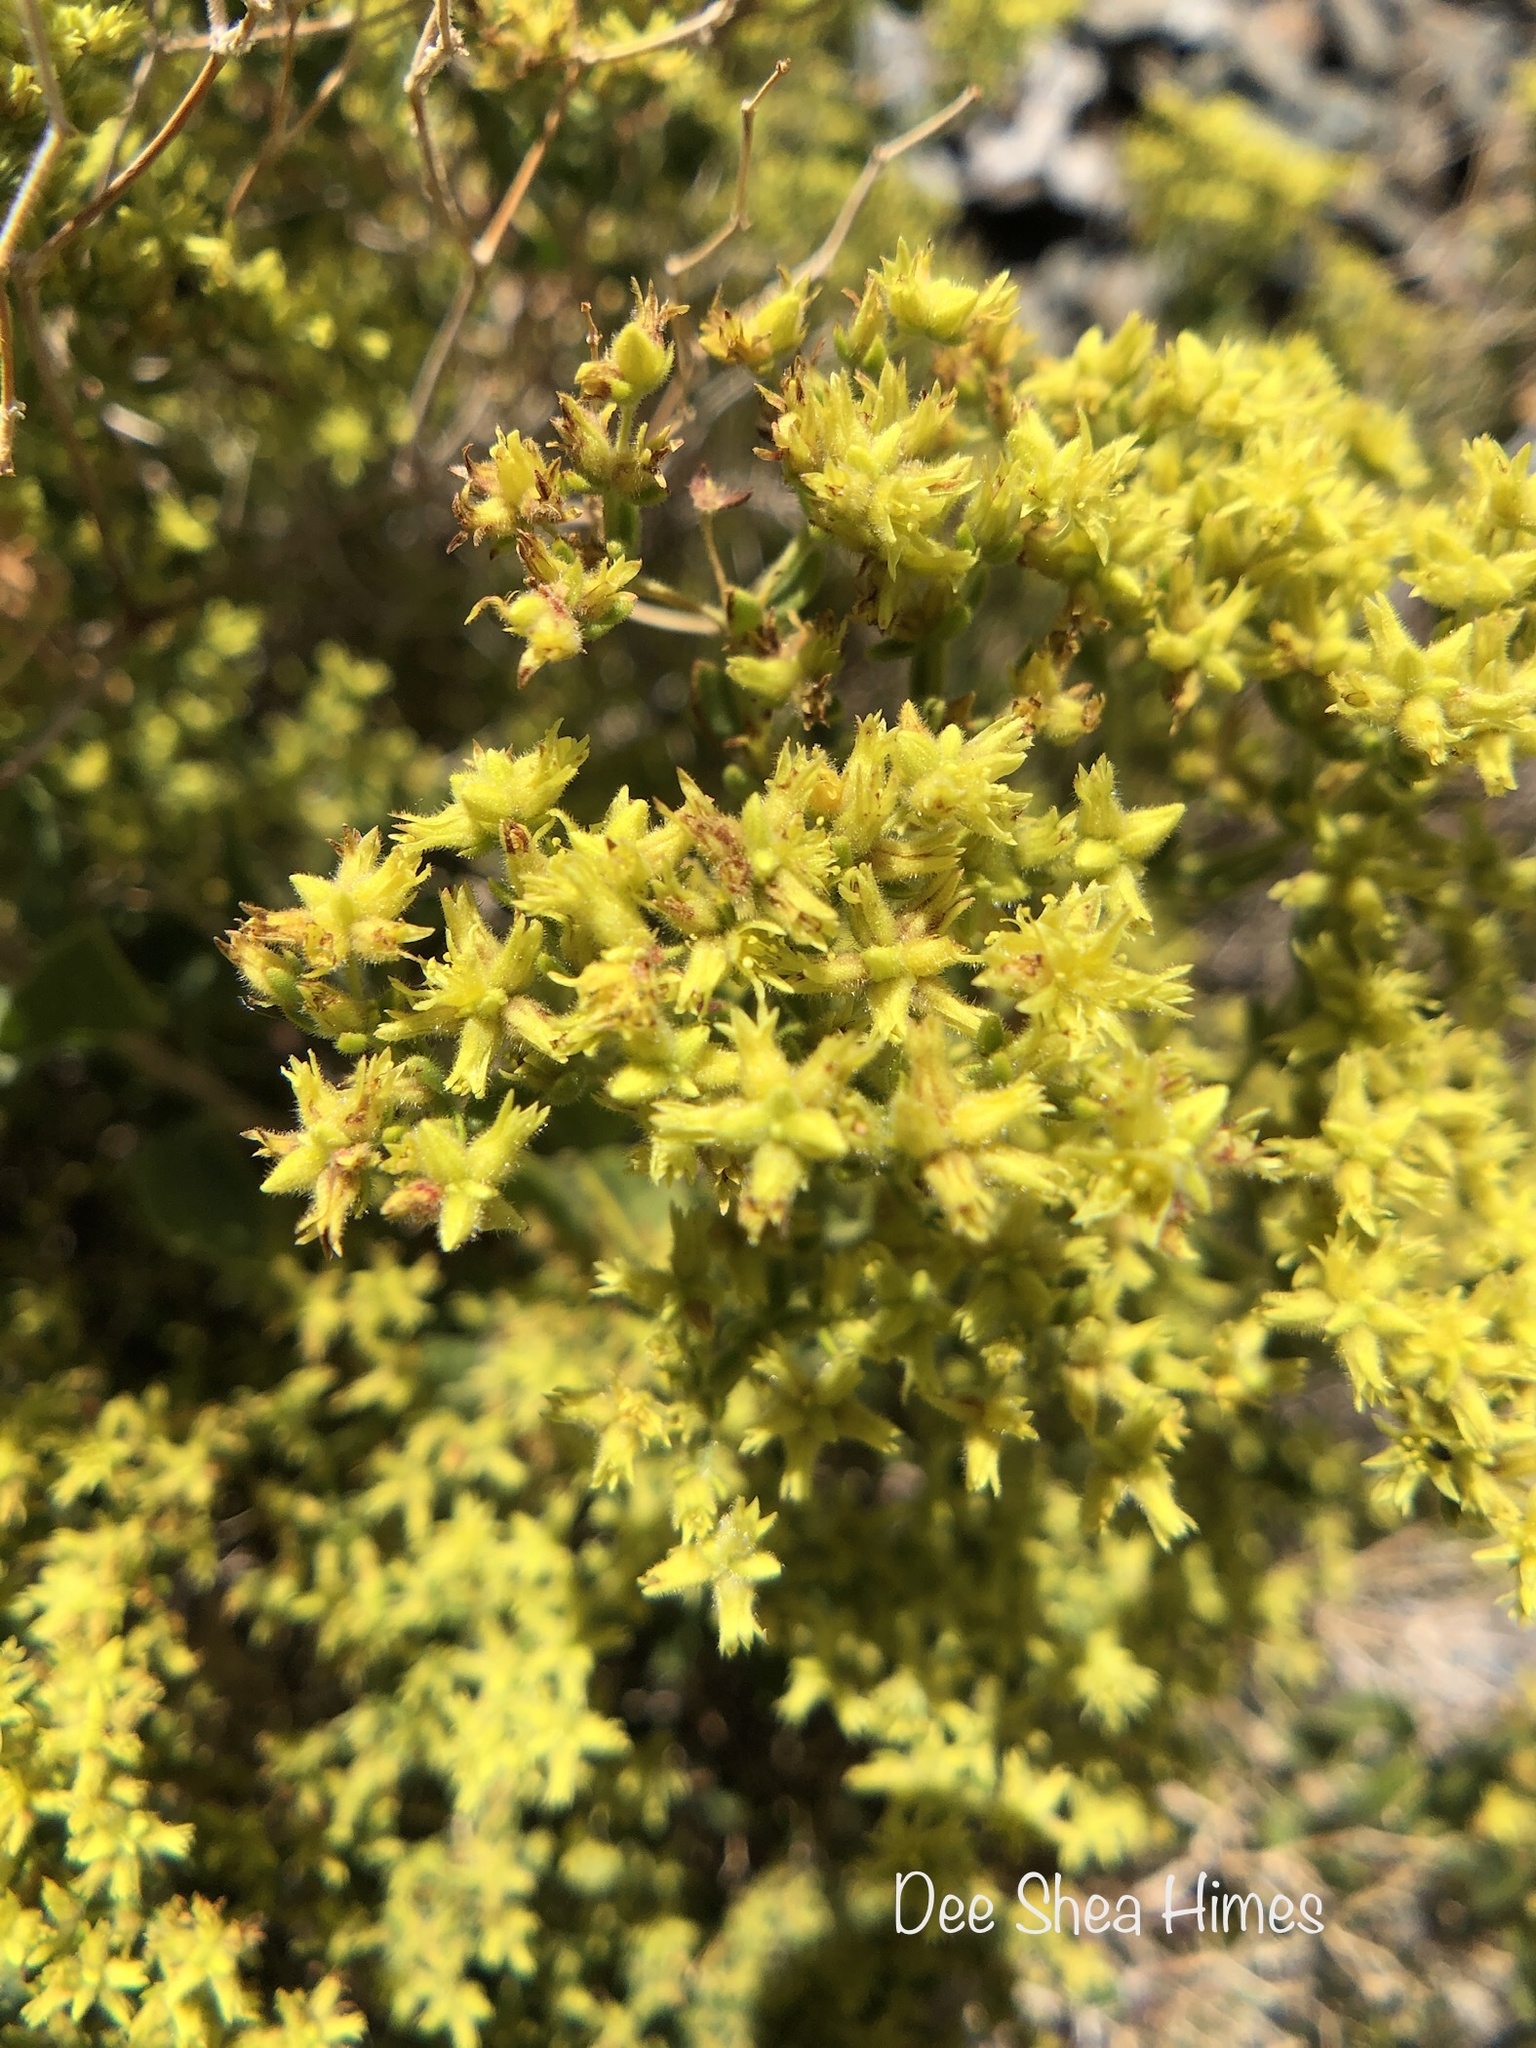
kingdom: Plantae
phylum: Tracheophyta
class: Magnoliopsida
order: Caryophyllales
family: Polygonaceae
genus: Dedeckera
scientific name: Dedeckera eurekensis
